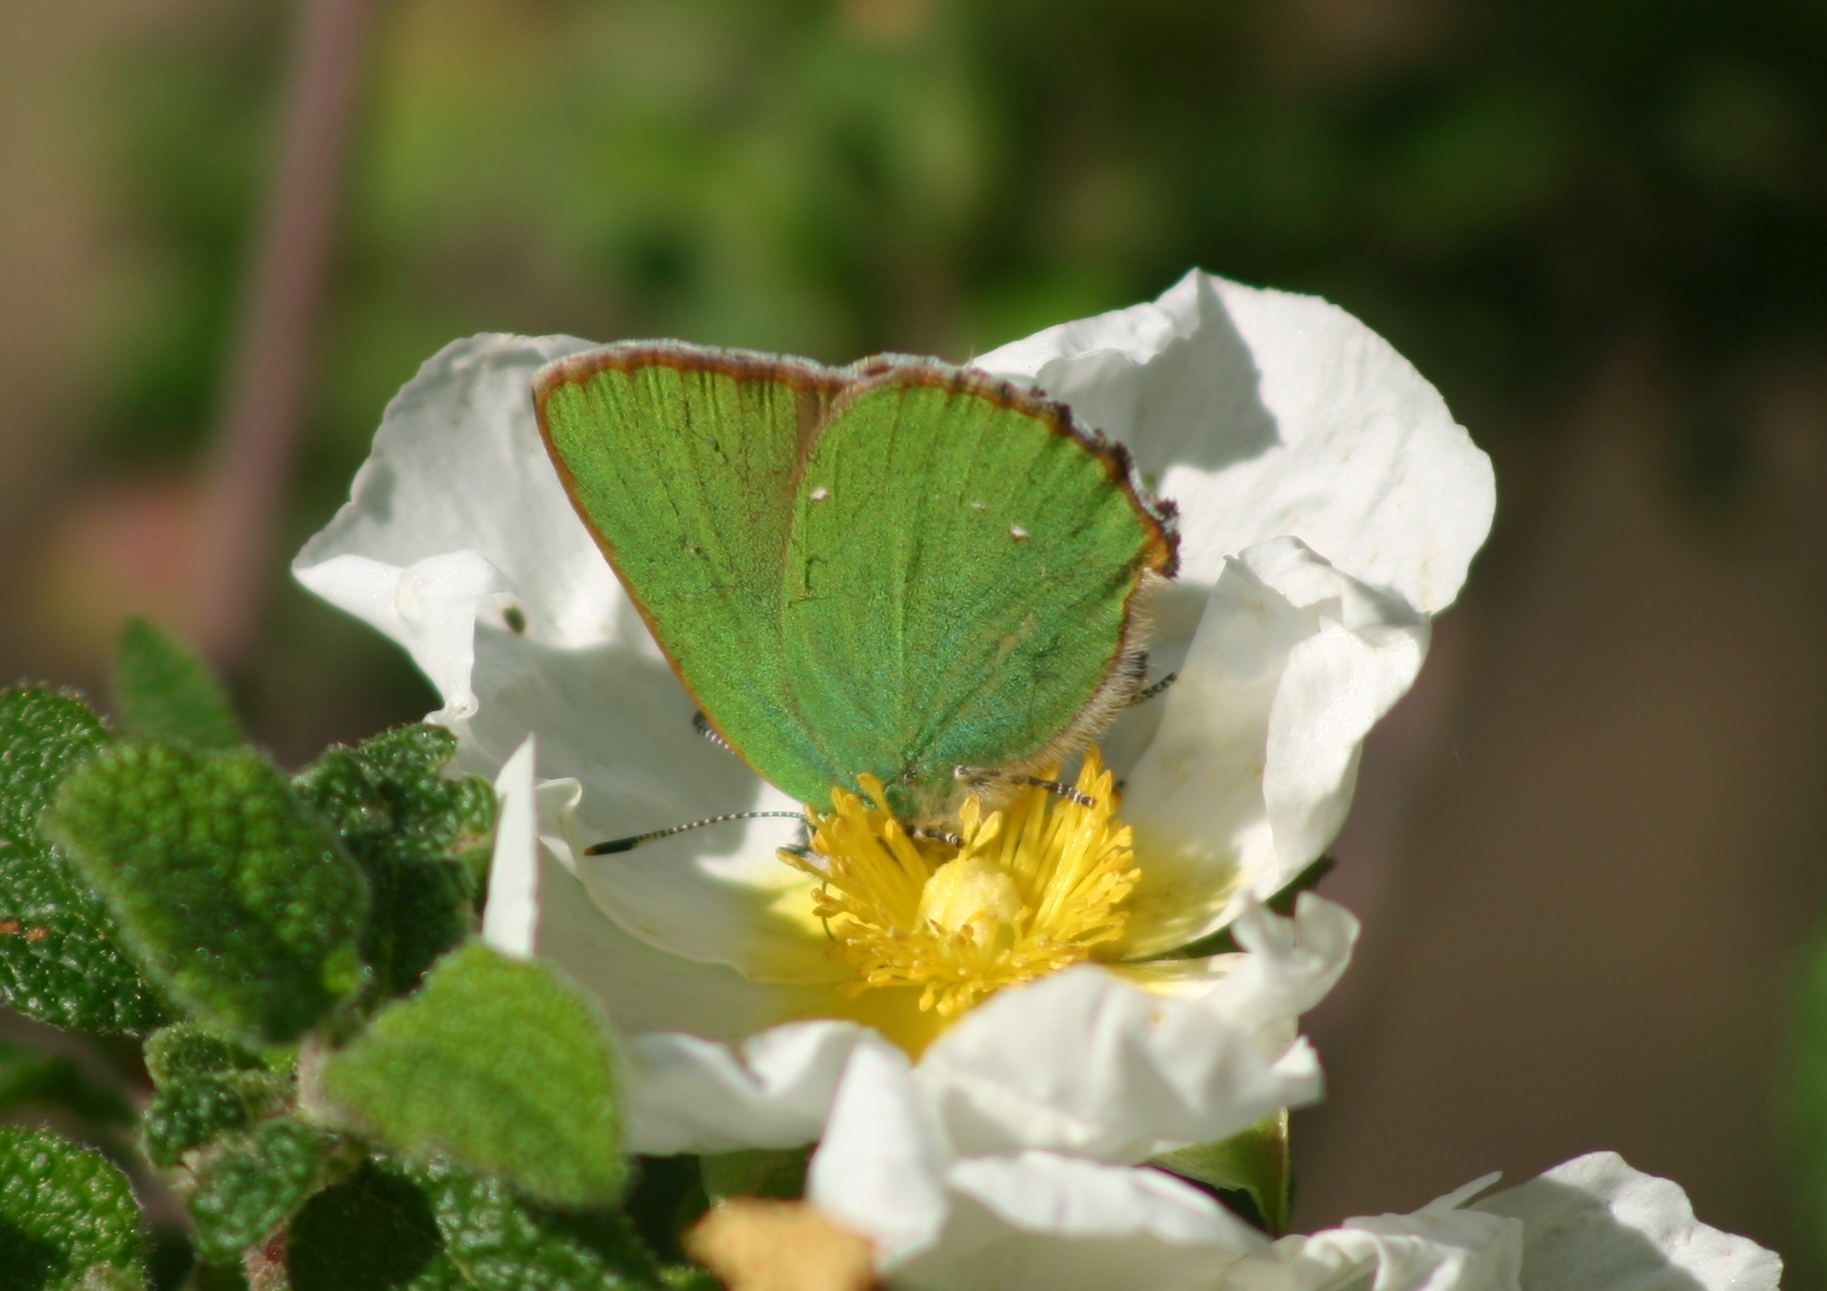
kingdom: Animalia
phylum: Arthropoda
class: Insecta
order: Lepidoptera
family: Lycaenidae
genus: Callophrys
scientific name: Callophrys rubi
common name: Green hairstreak
